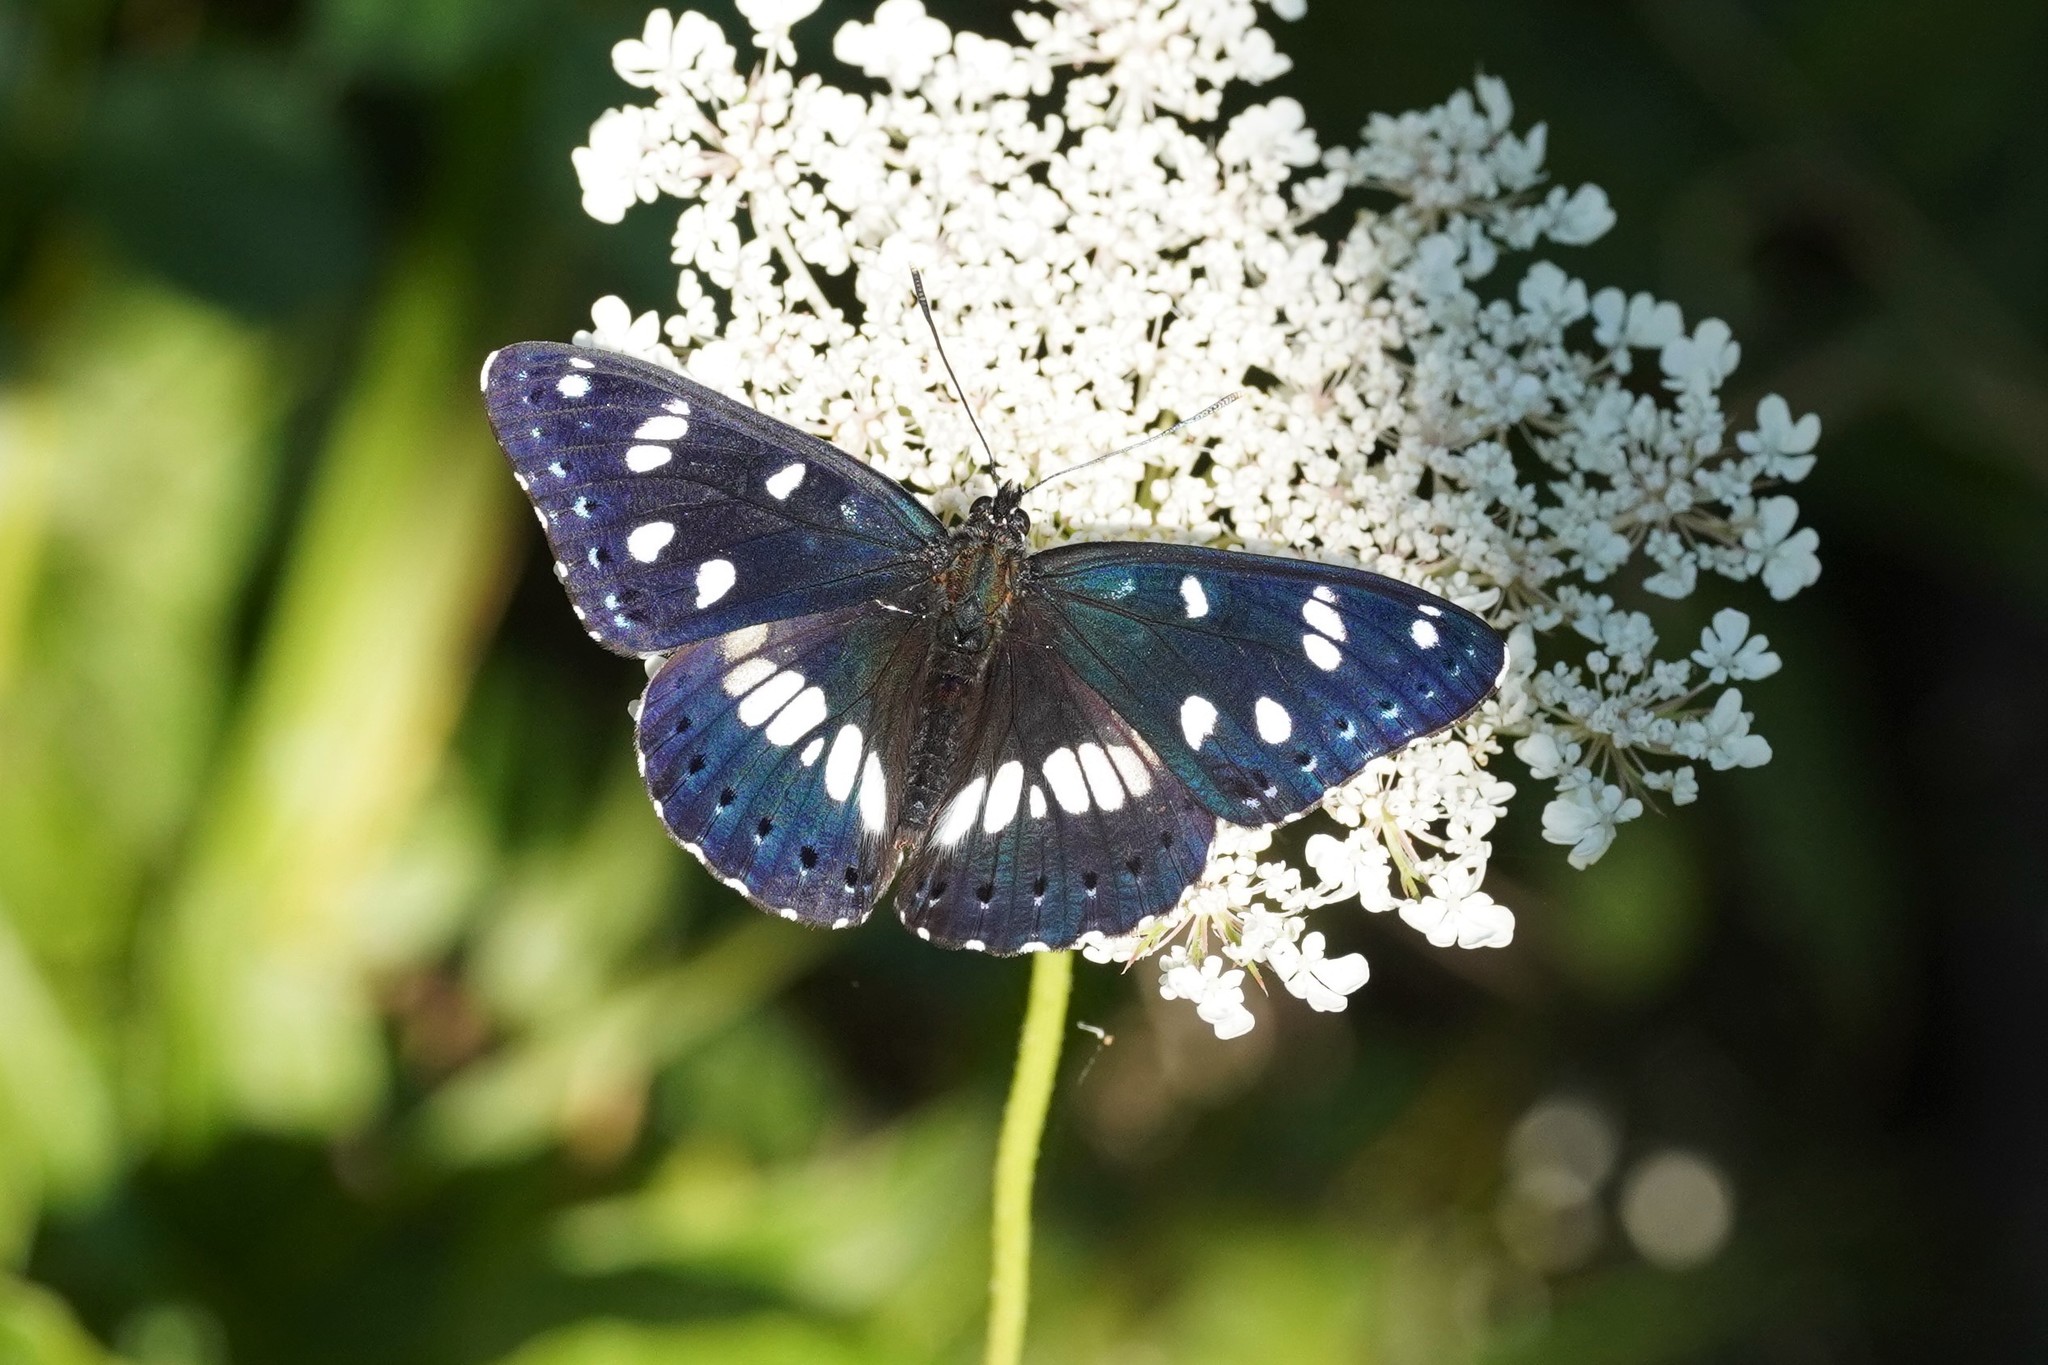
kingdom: Animalia
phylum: Arthropoda
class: Insecta
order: Lepidoptera
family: Nymphalidae
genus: Limenitis
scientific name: Limenitis reducta
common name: Southern white admiral
